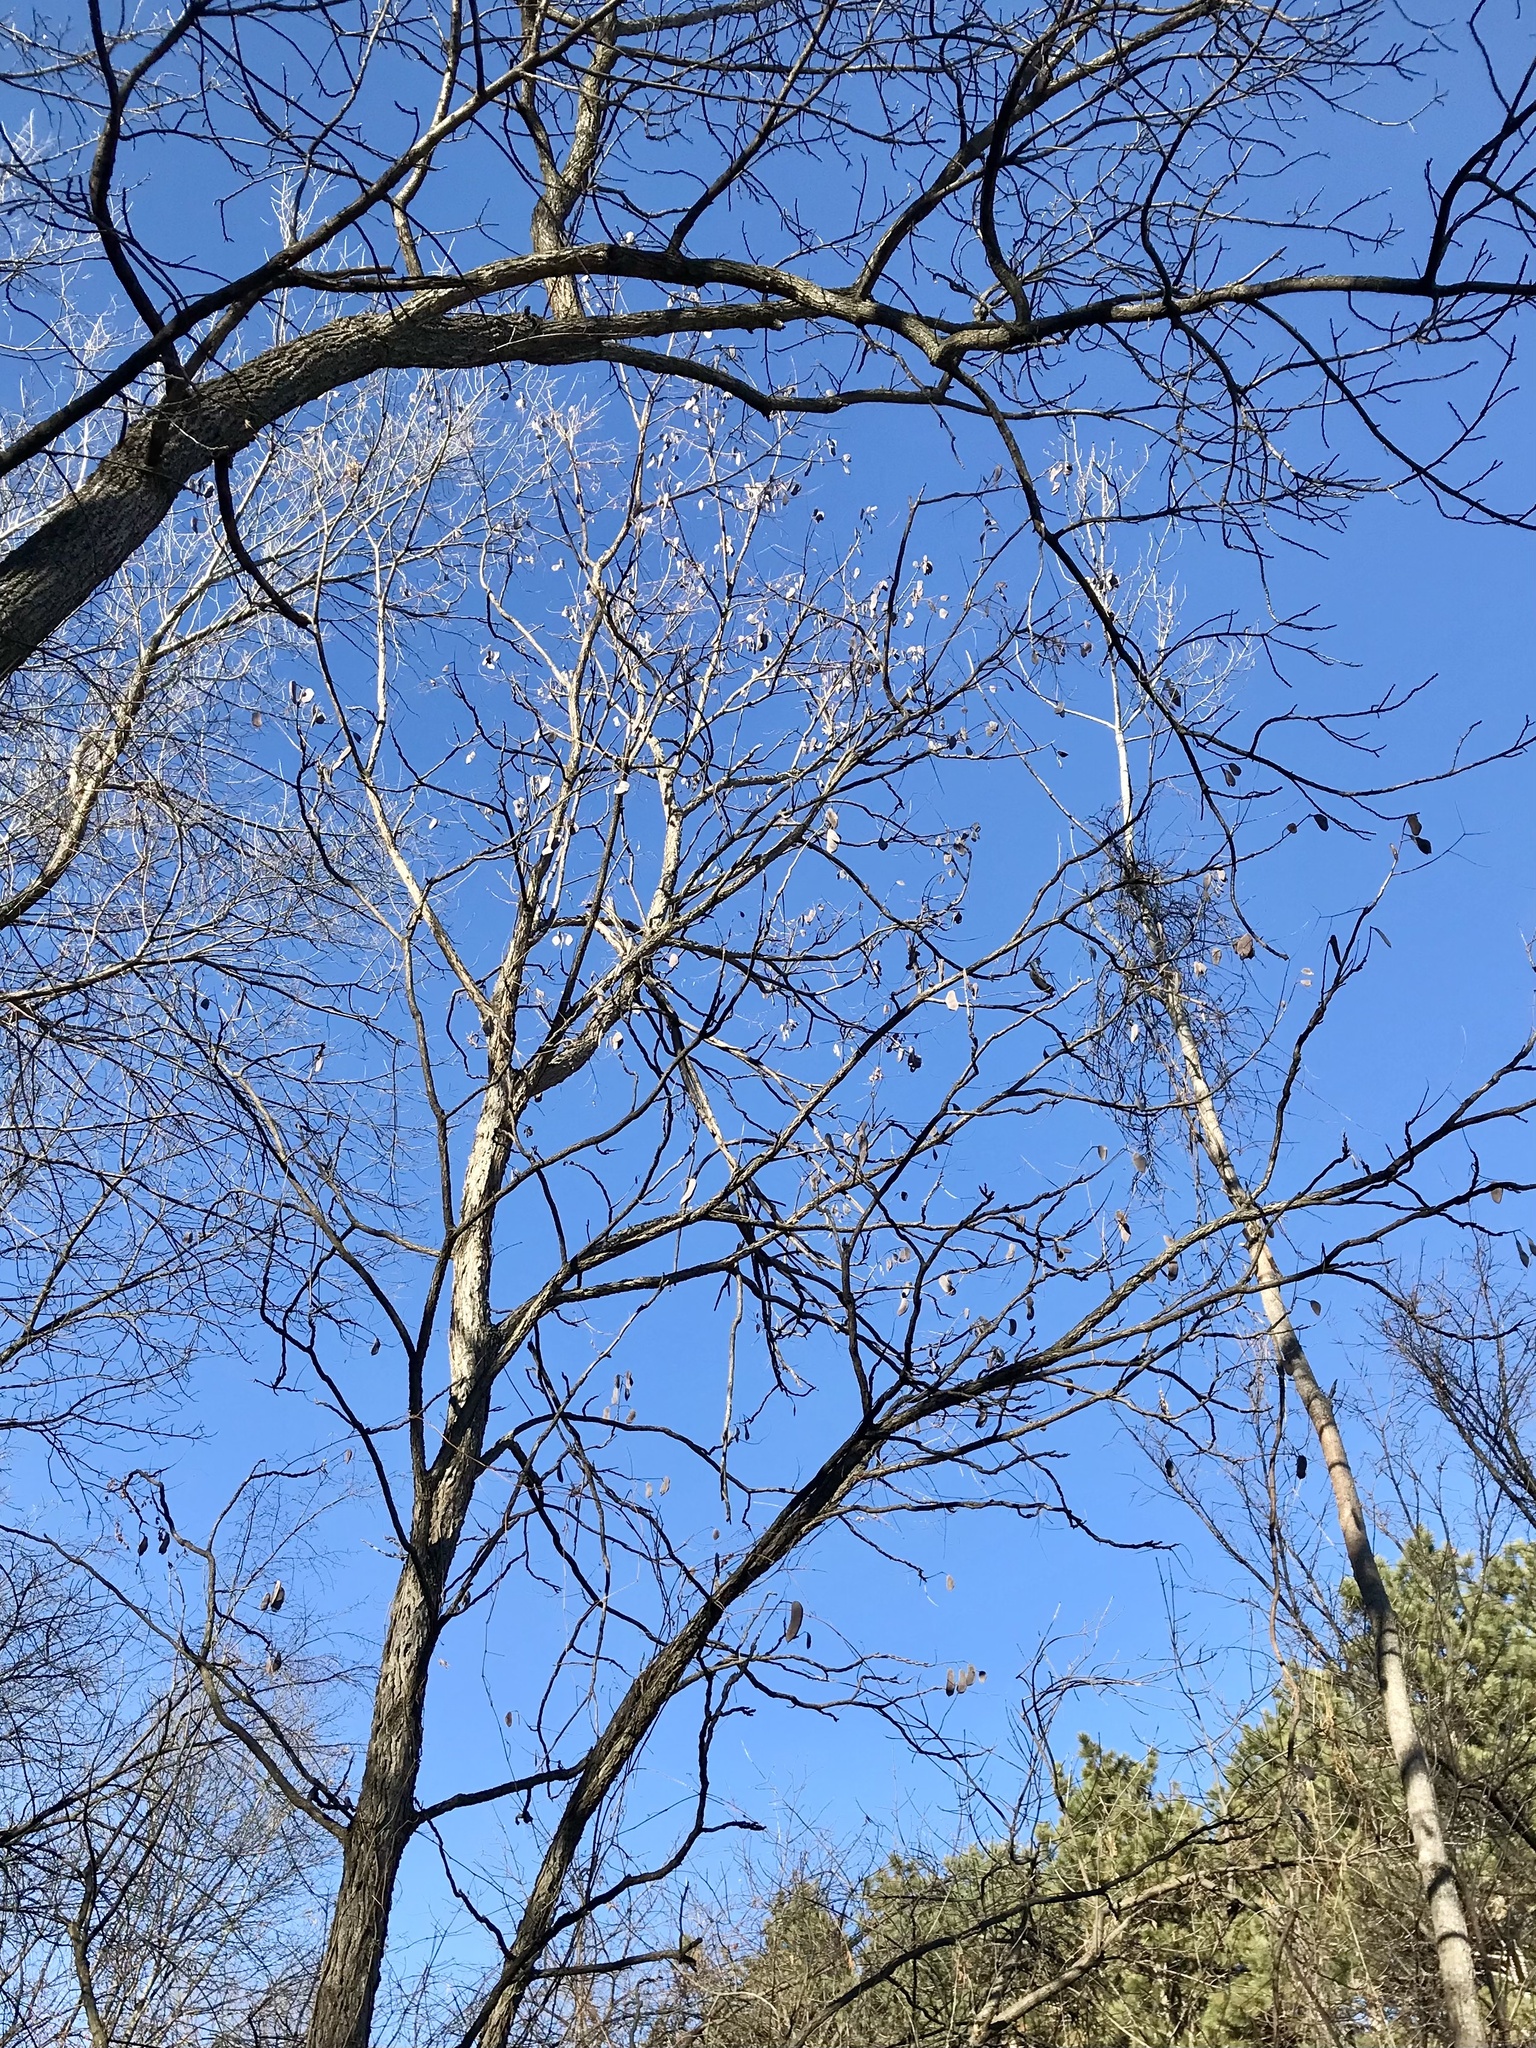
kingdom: Plantae
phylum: Tracheophyta
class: Magnoliopsida
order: Fabales
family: Fabaceae
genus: Gymnocladus
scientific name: Gymnocladus dioicus
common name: Kentucky coffee-tree
